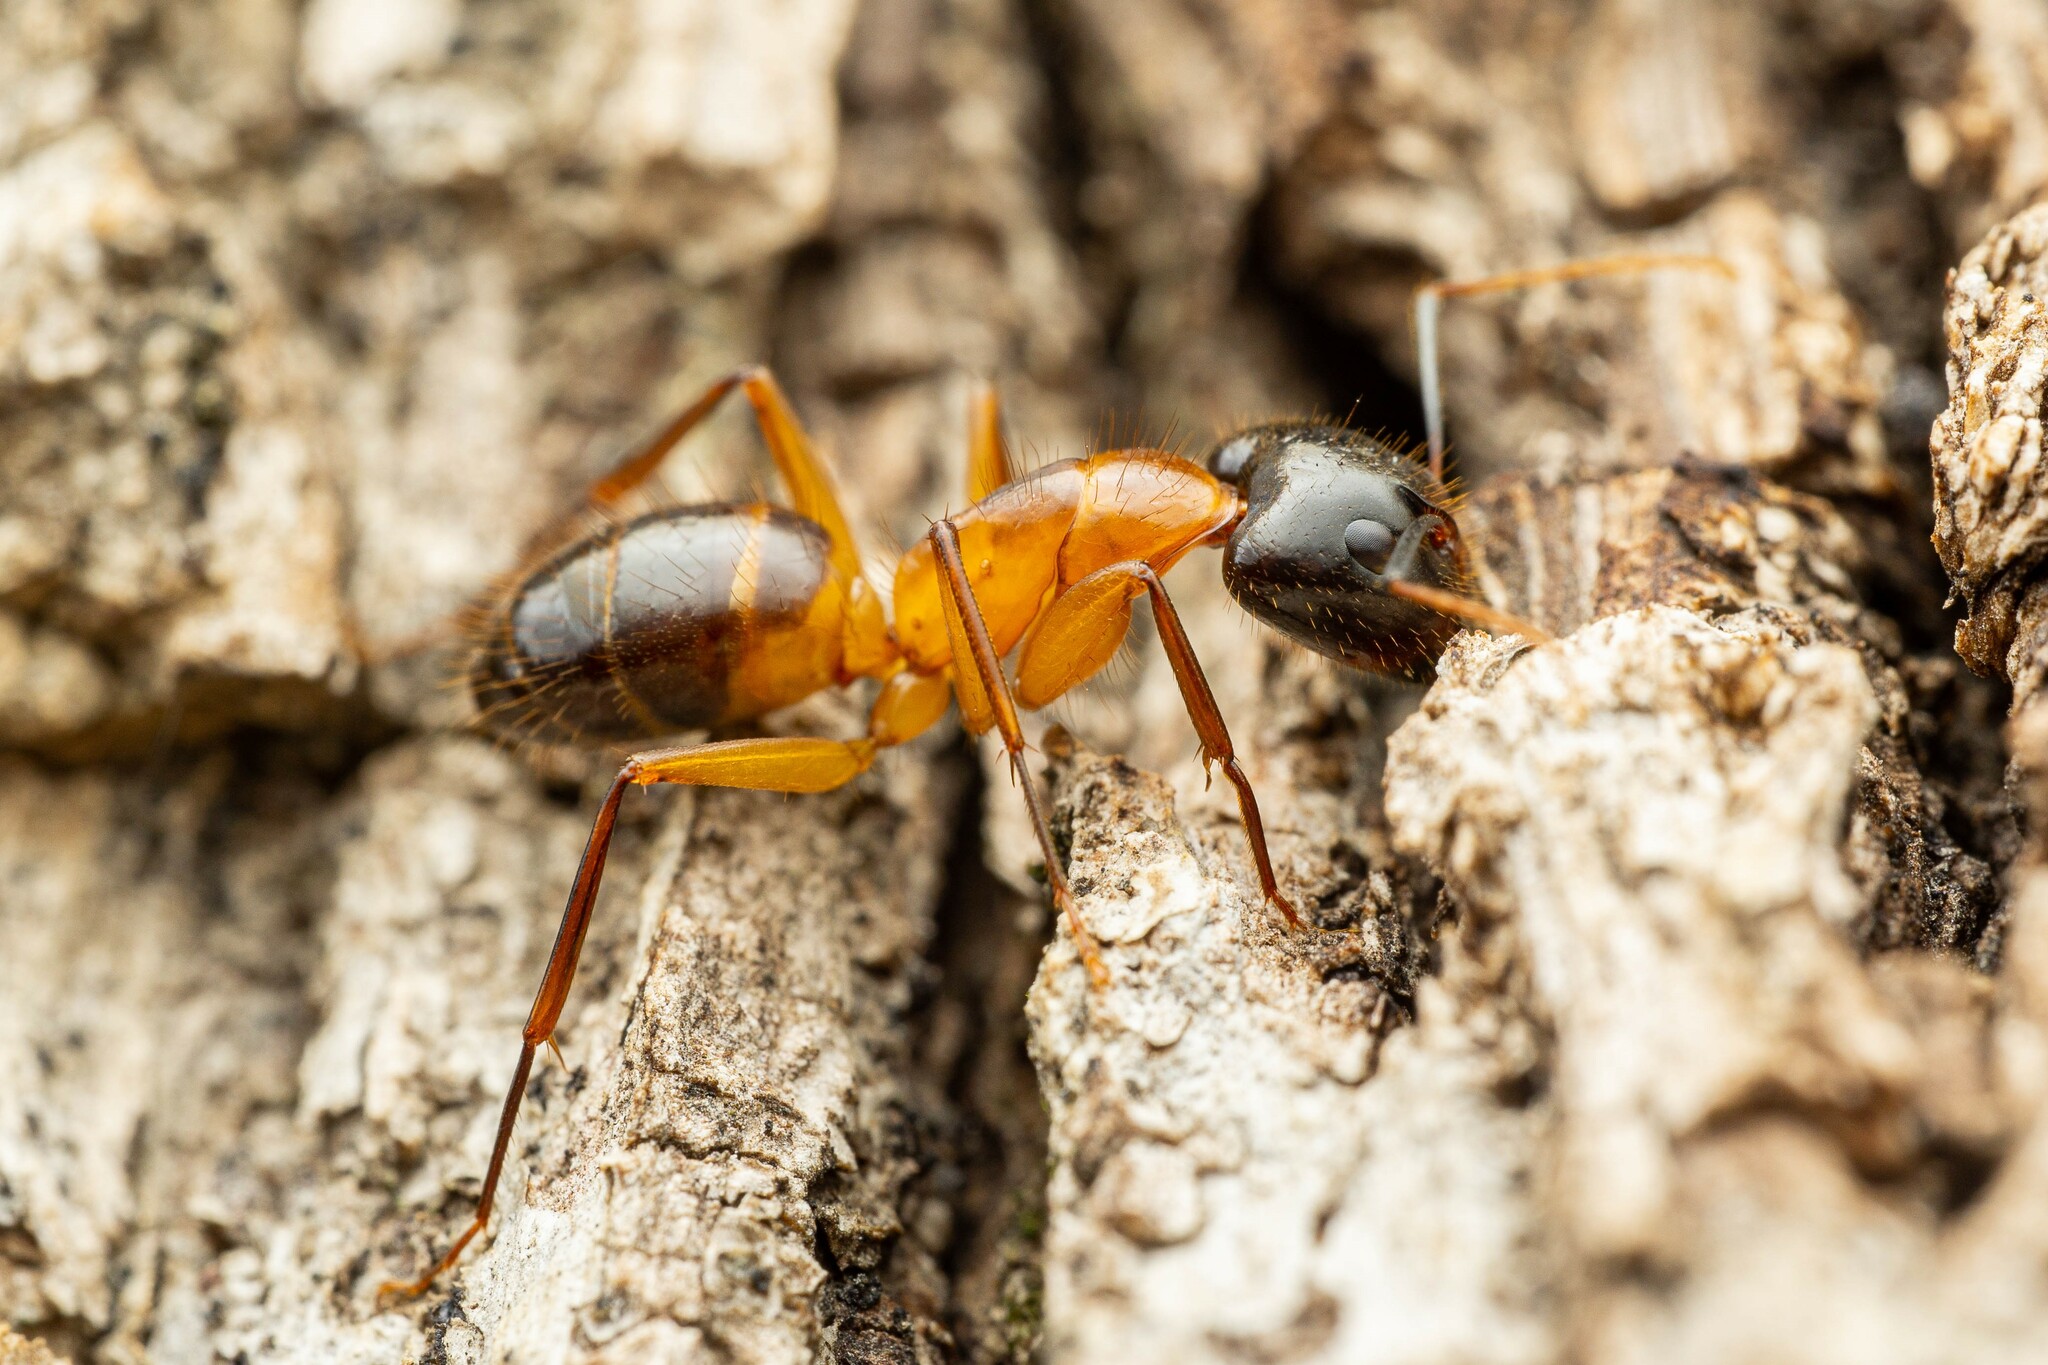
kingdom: Animalia
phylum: Arthropoda
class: Insecta
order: Hymenoptera
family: Formicidae
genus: Camponotus
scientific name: Camponotus vafer
